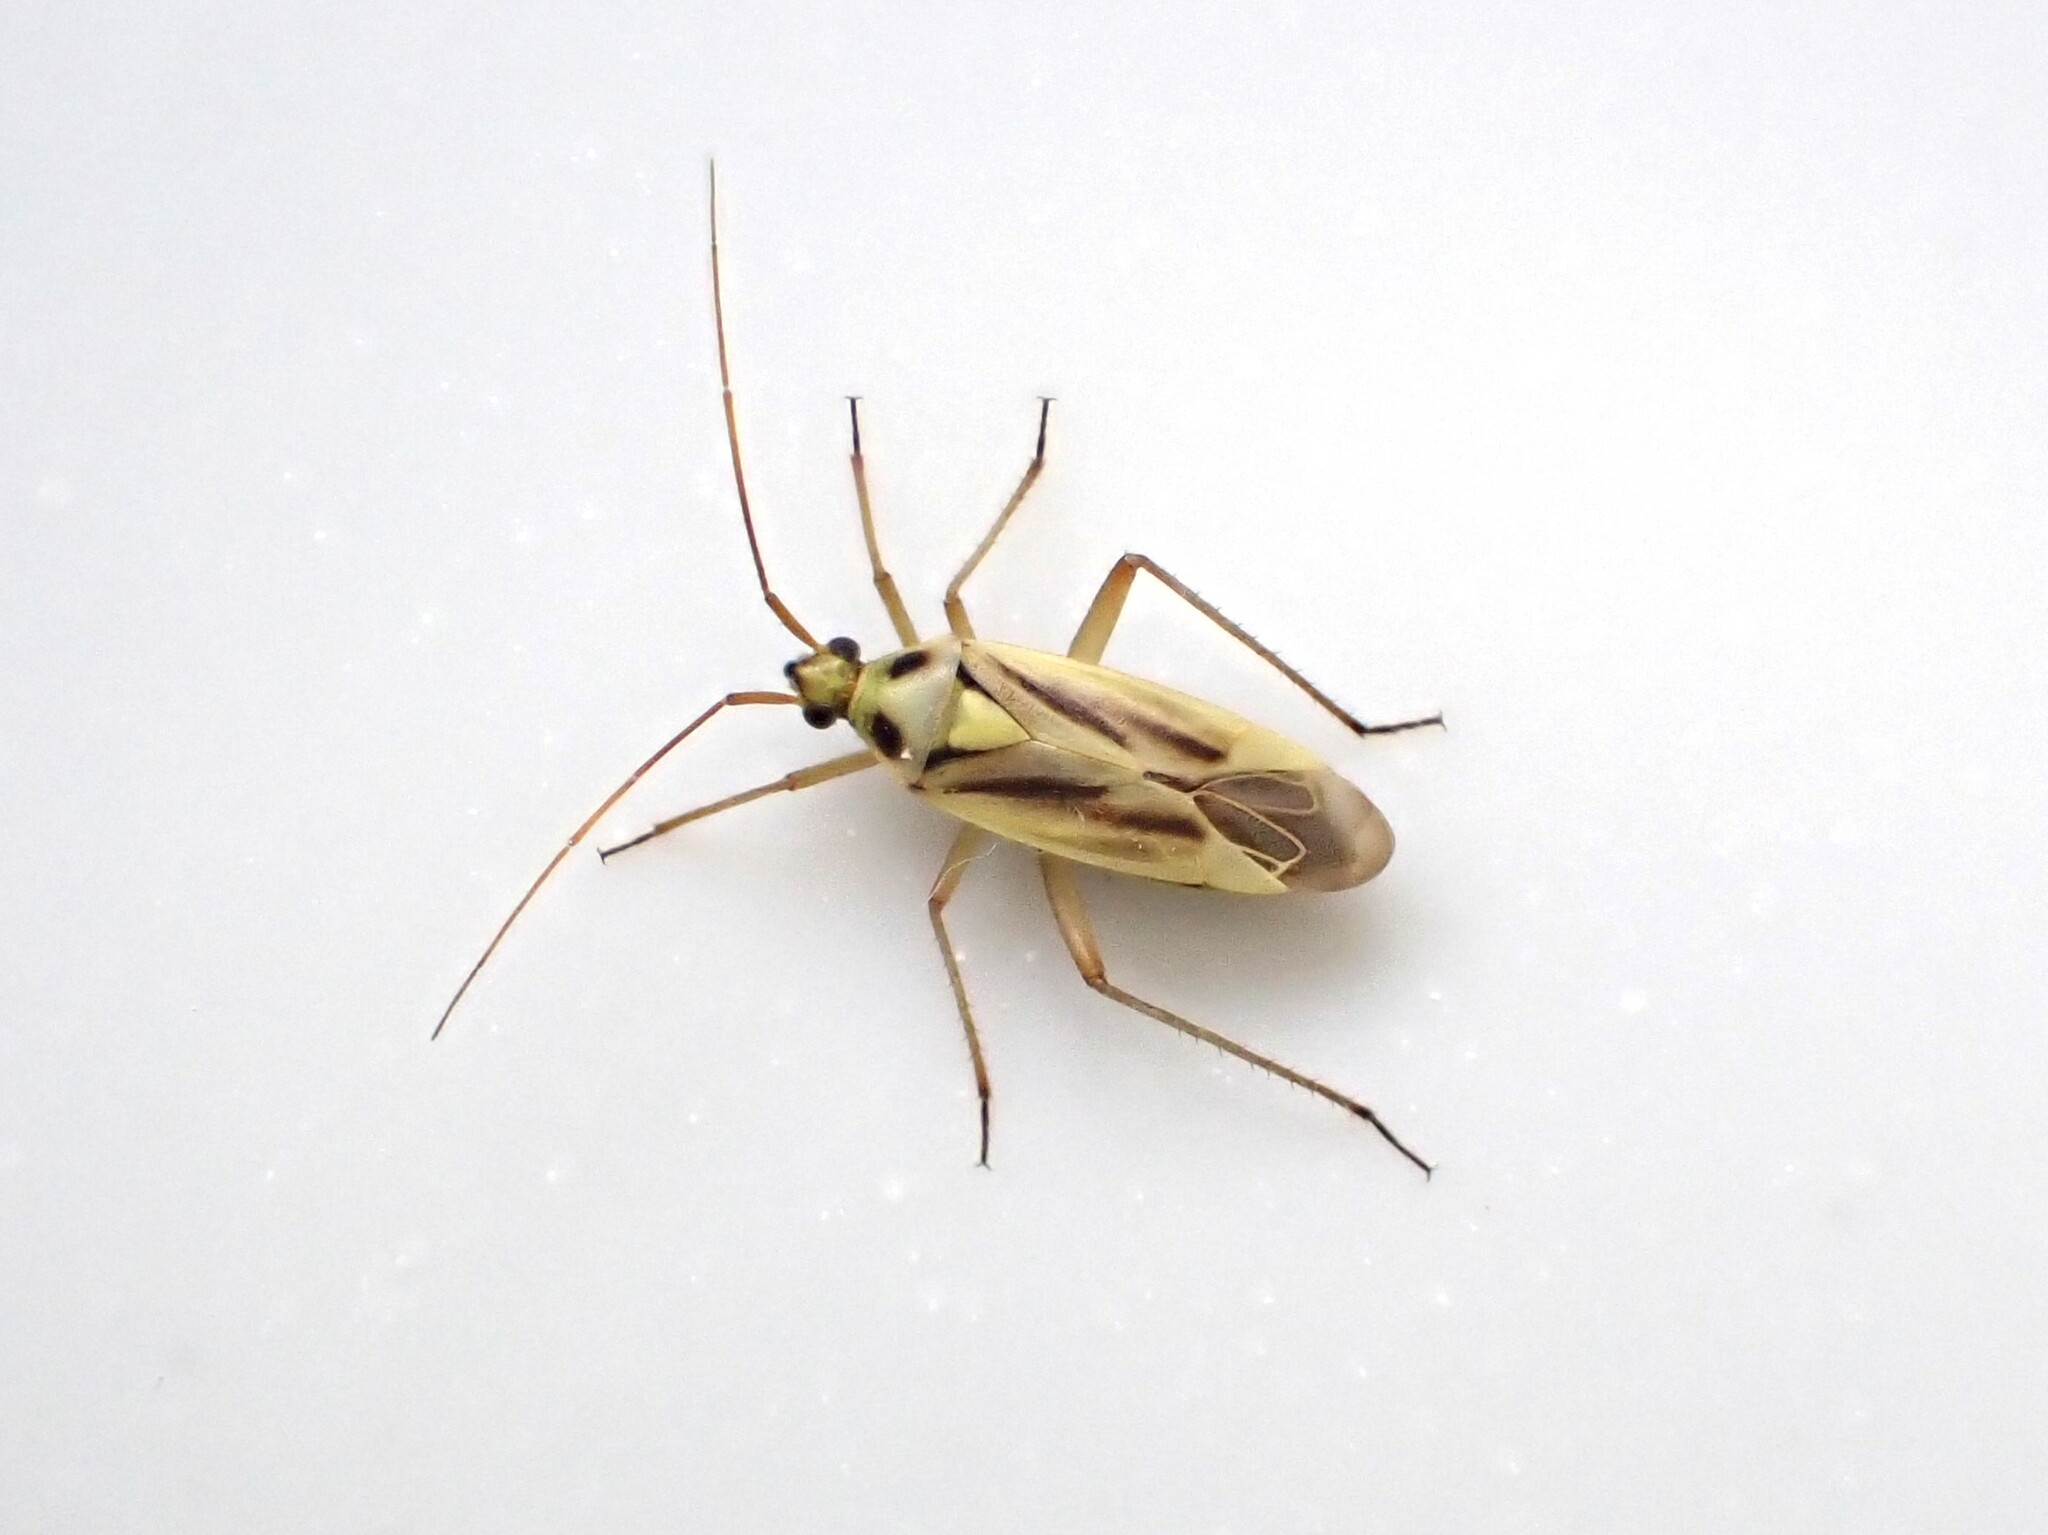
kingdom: Animalia
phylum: Arthropoda
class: Insecta
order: Hemiptera
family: Miridae
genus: Stenotus
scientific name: Stenotus binotatus
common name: Plant bug
